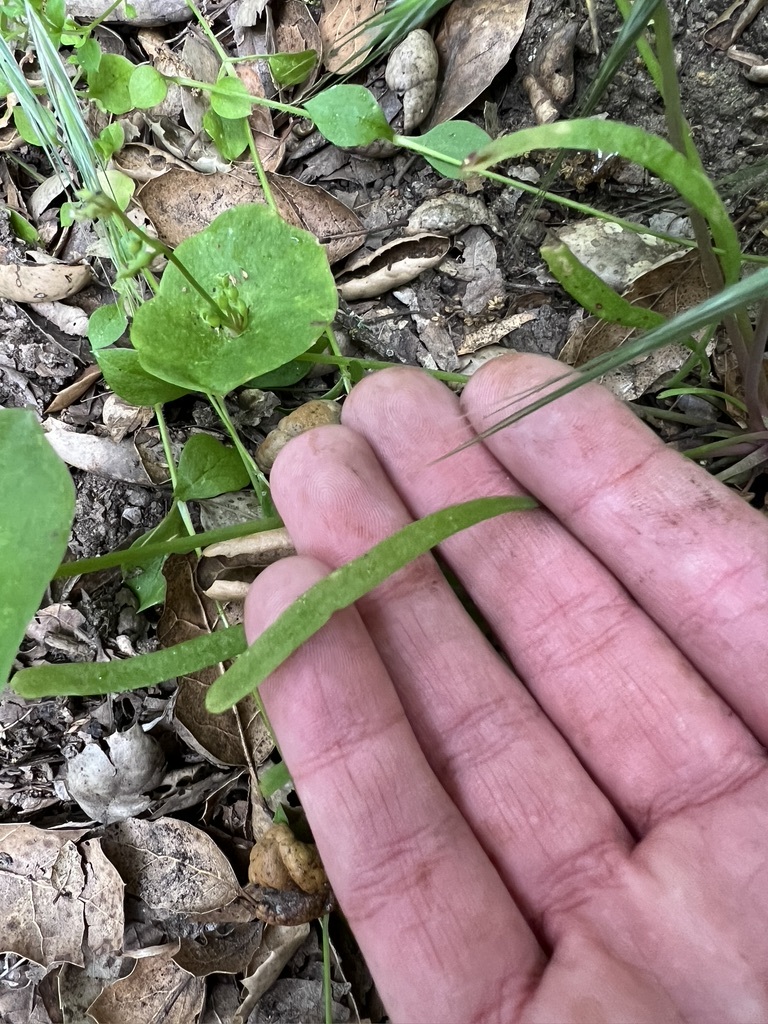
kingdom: Plantae
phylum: Tracheophyta
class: Magnoliopsida
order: Caryophyllales
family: Montiaceae
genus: Claytonia
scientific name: Claytonia parviflora
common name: Indian-lettuce
